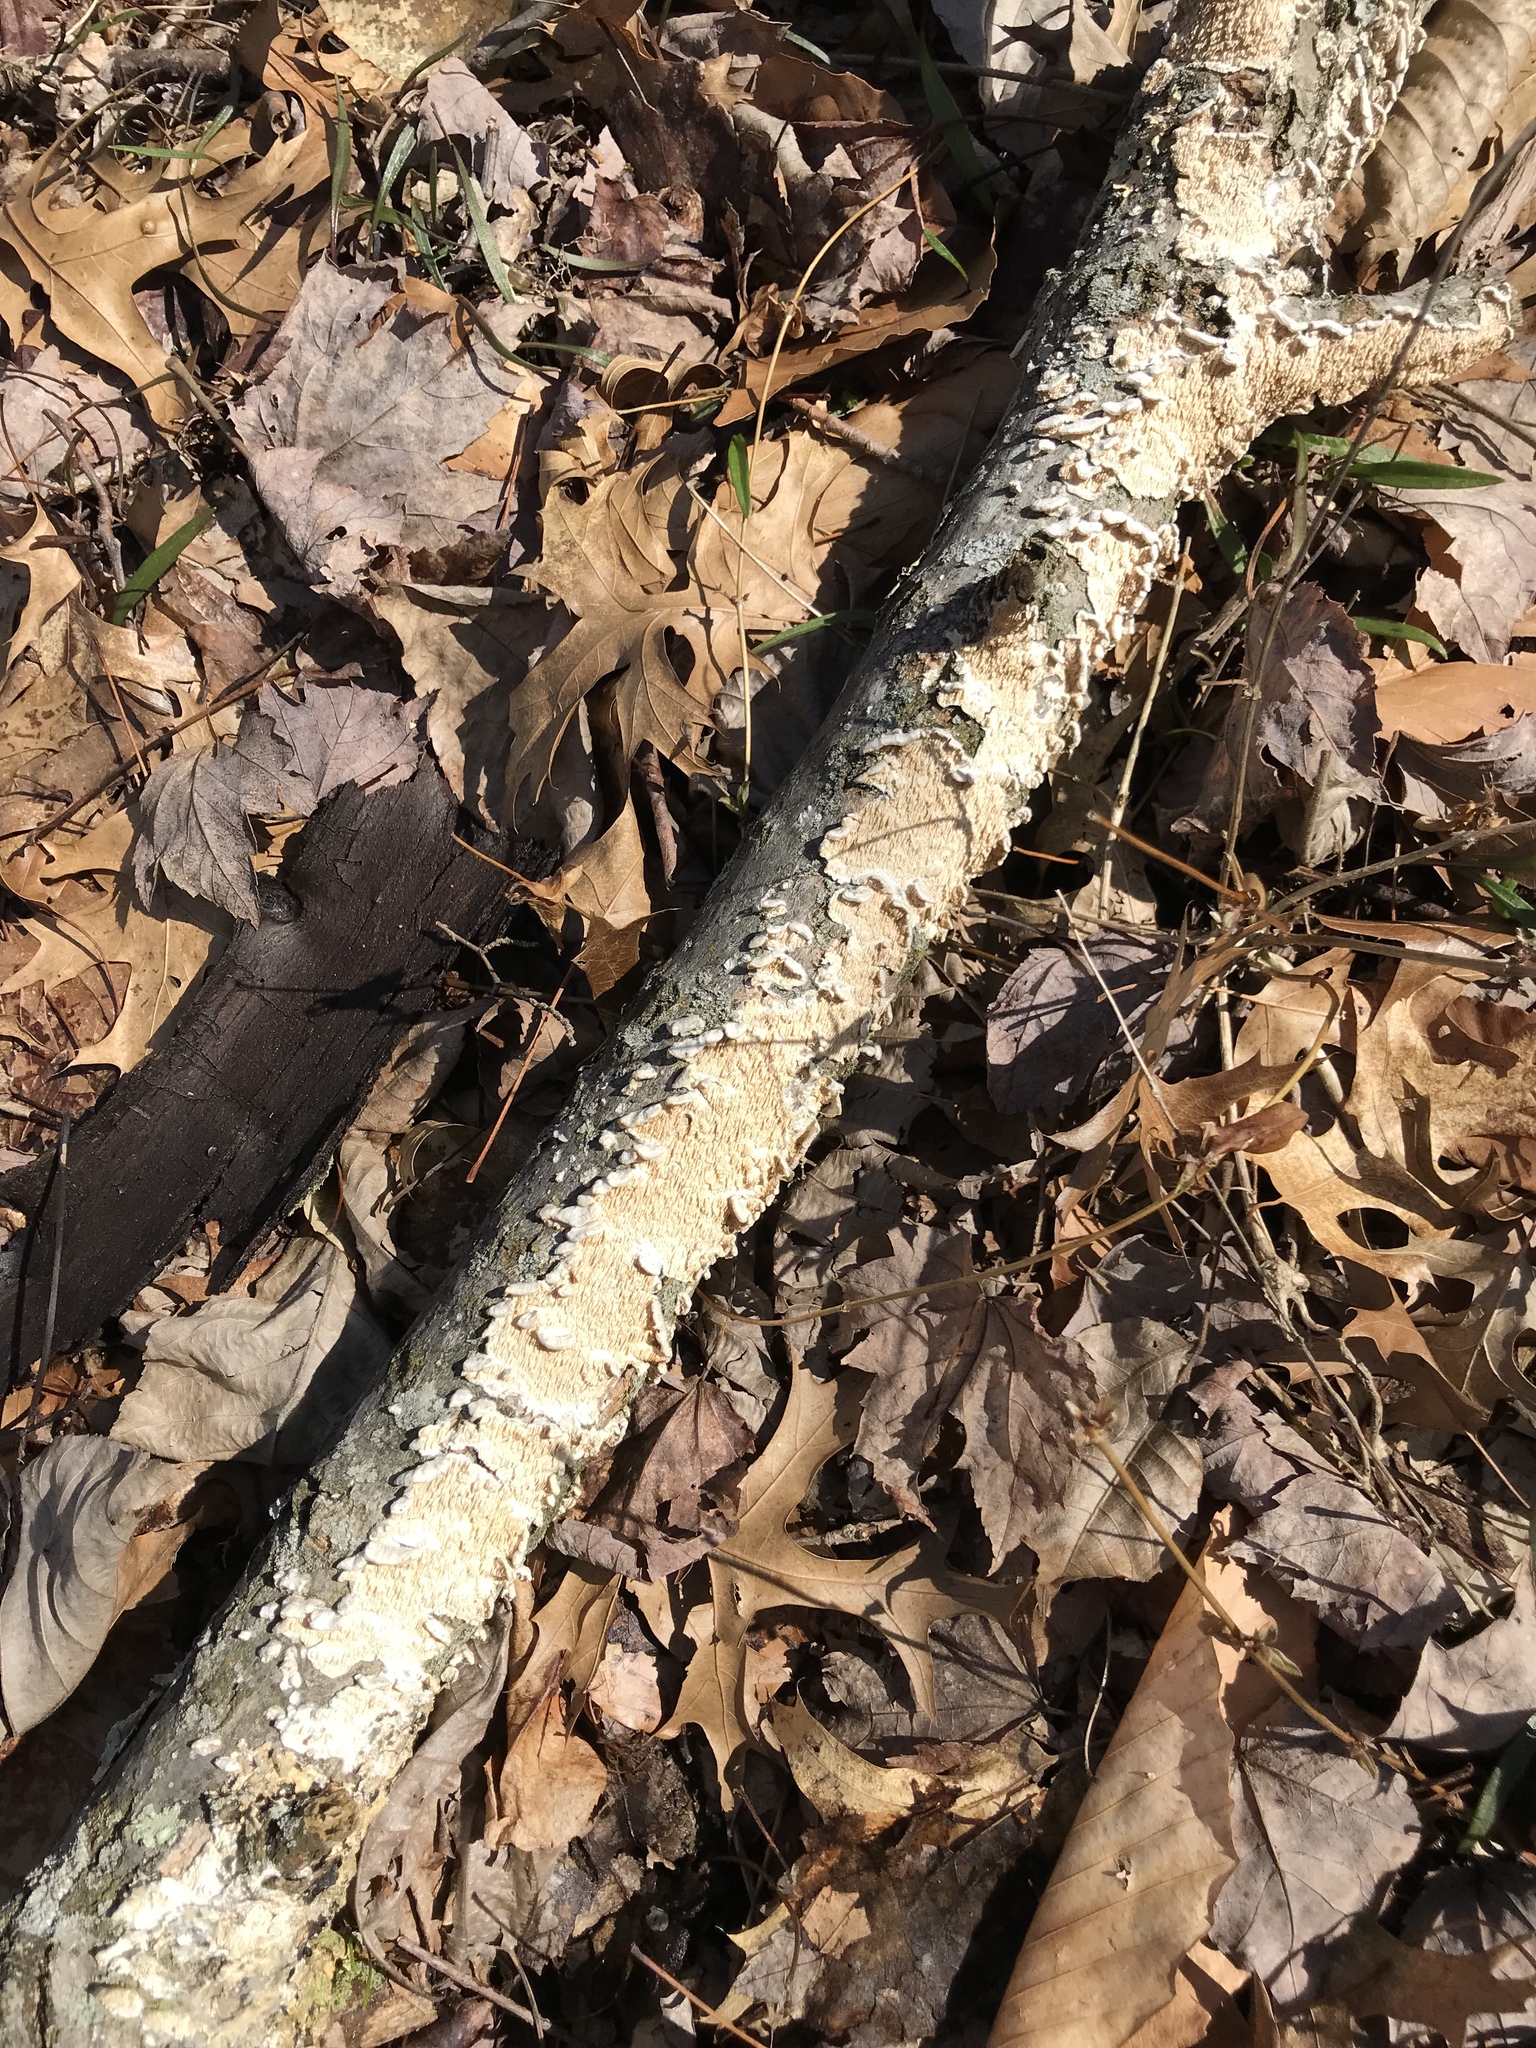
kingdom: Fungi
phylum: Basidiomycota
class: Agaricomycetes
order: Polyporales
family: Irpicaceae
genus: Irpex
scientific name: Irpex lacteus
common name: Milk-white toothed polypore
